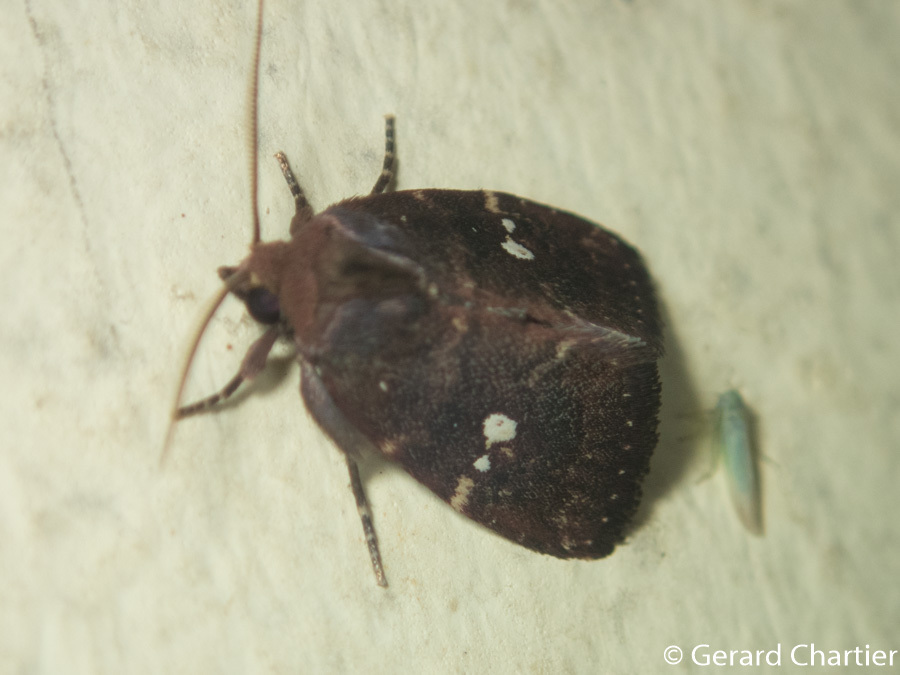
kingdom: Animalia
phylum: Arthropoda
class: Insecta
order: Lepidoptera
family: Noctuidae
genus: Elusa
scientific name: Elusa puncticeps
